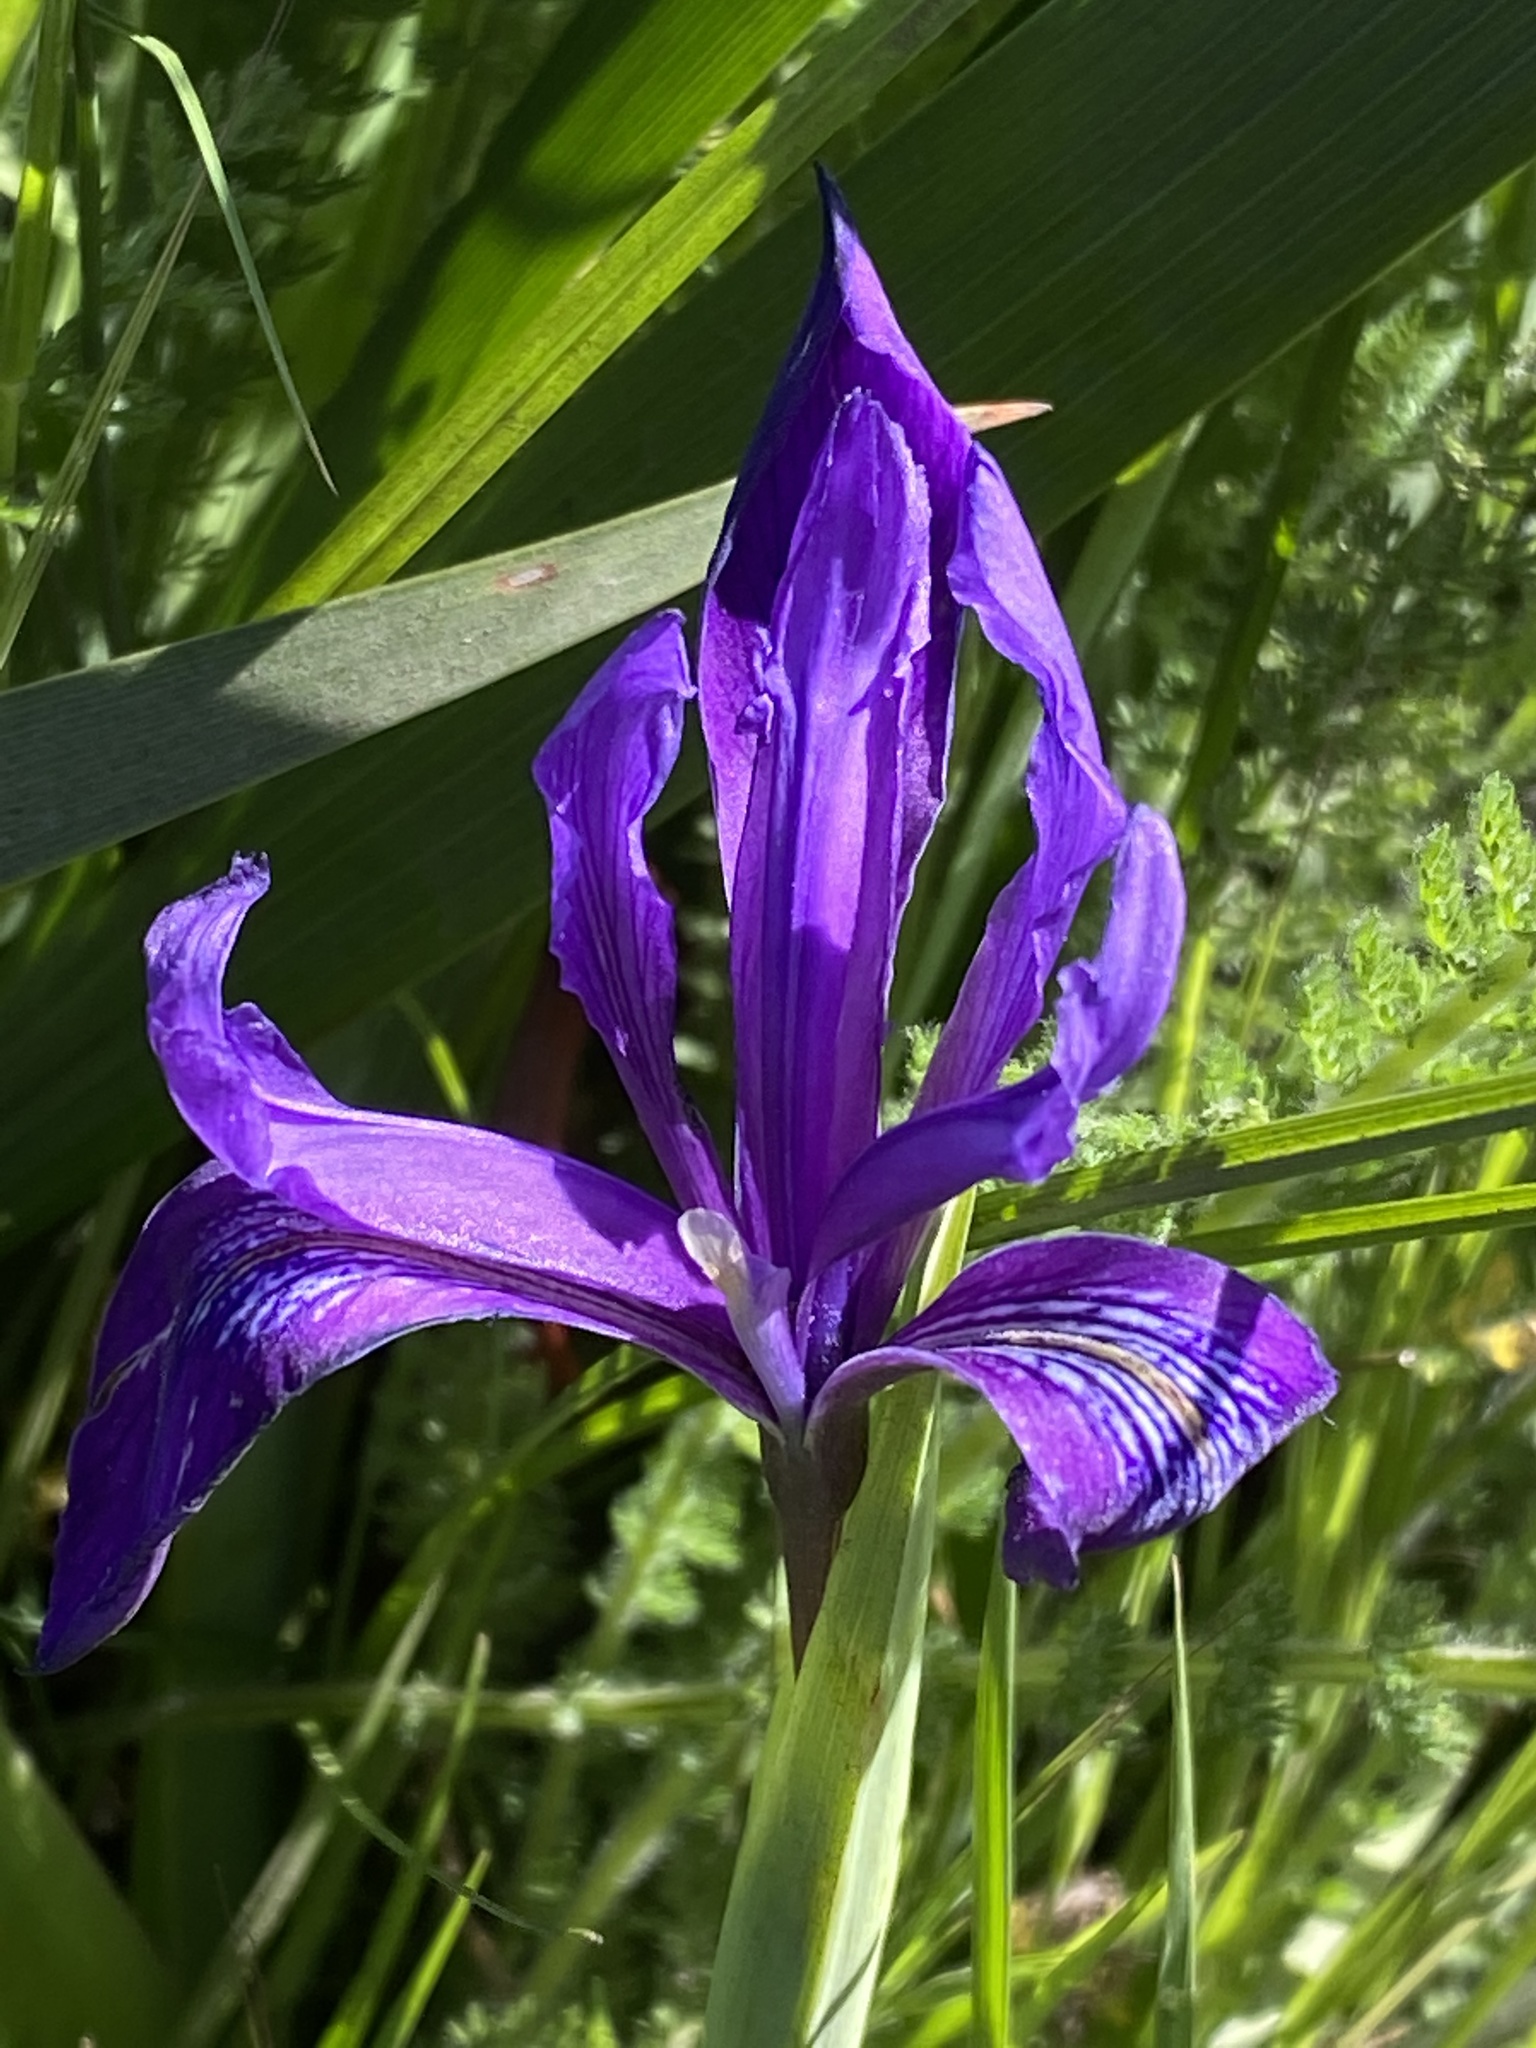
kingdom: Plantae
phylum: Tracheophyta
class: Liliopsida
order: Asparagales
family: Iridaceae
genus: Iris
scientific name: Iris douglasiana
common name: Marin iris
